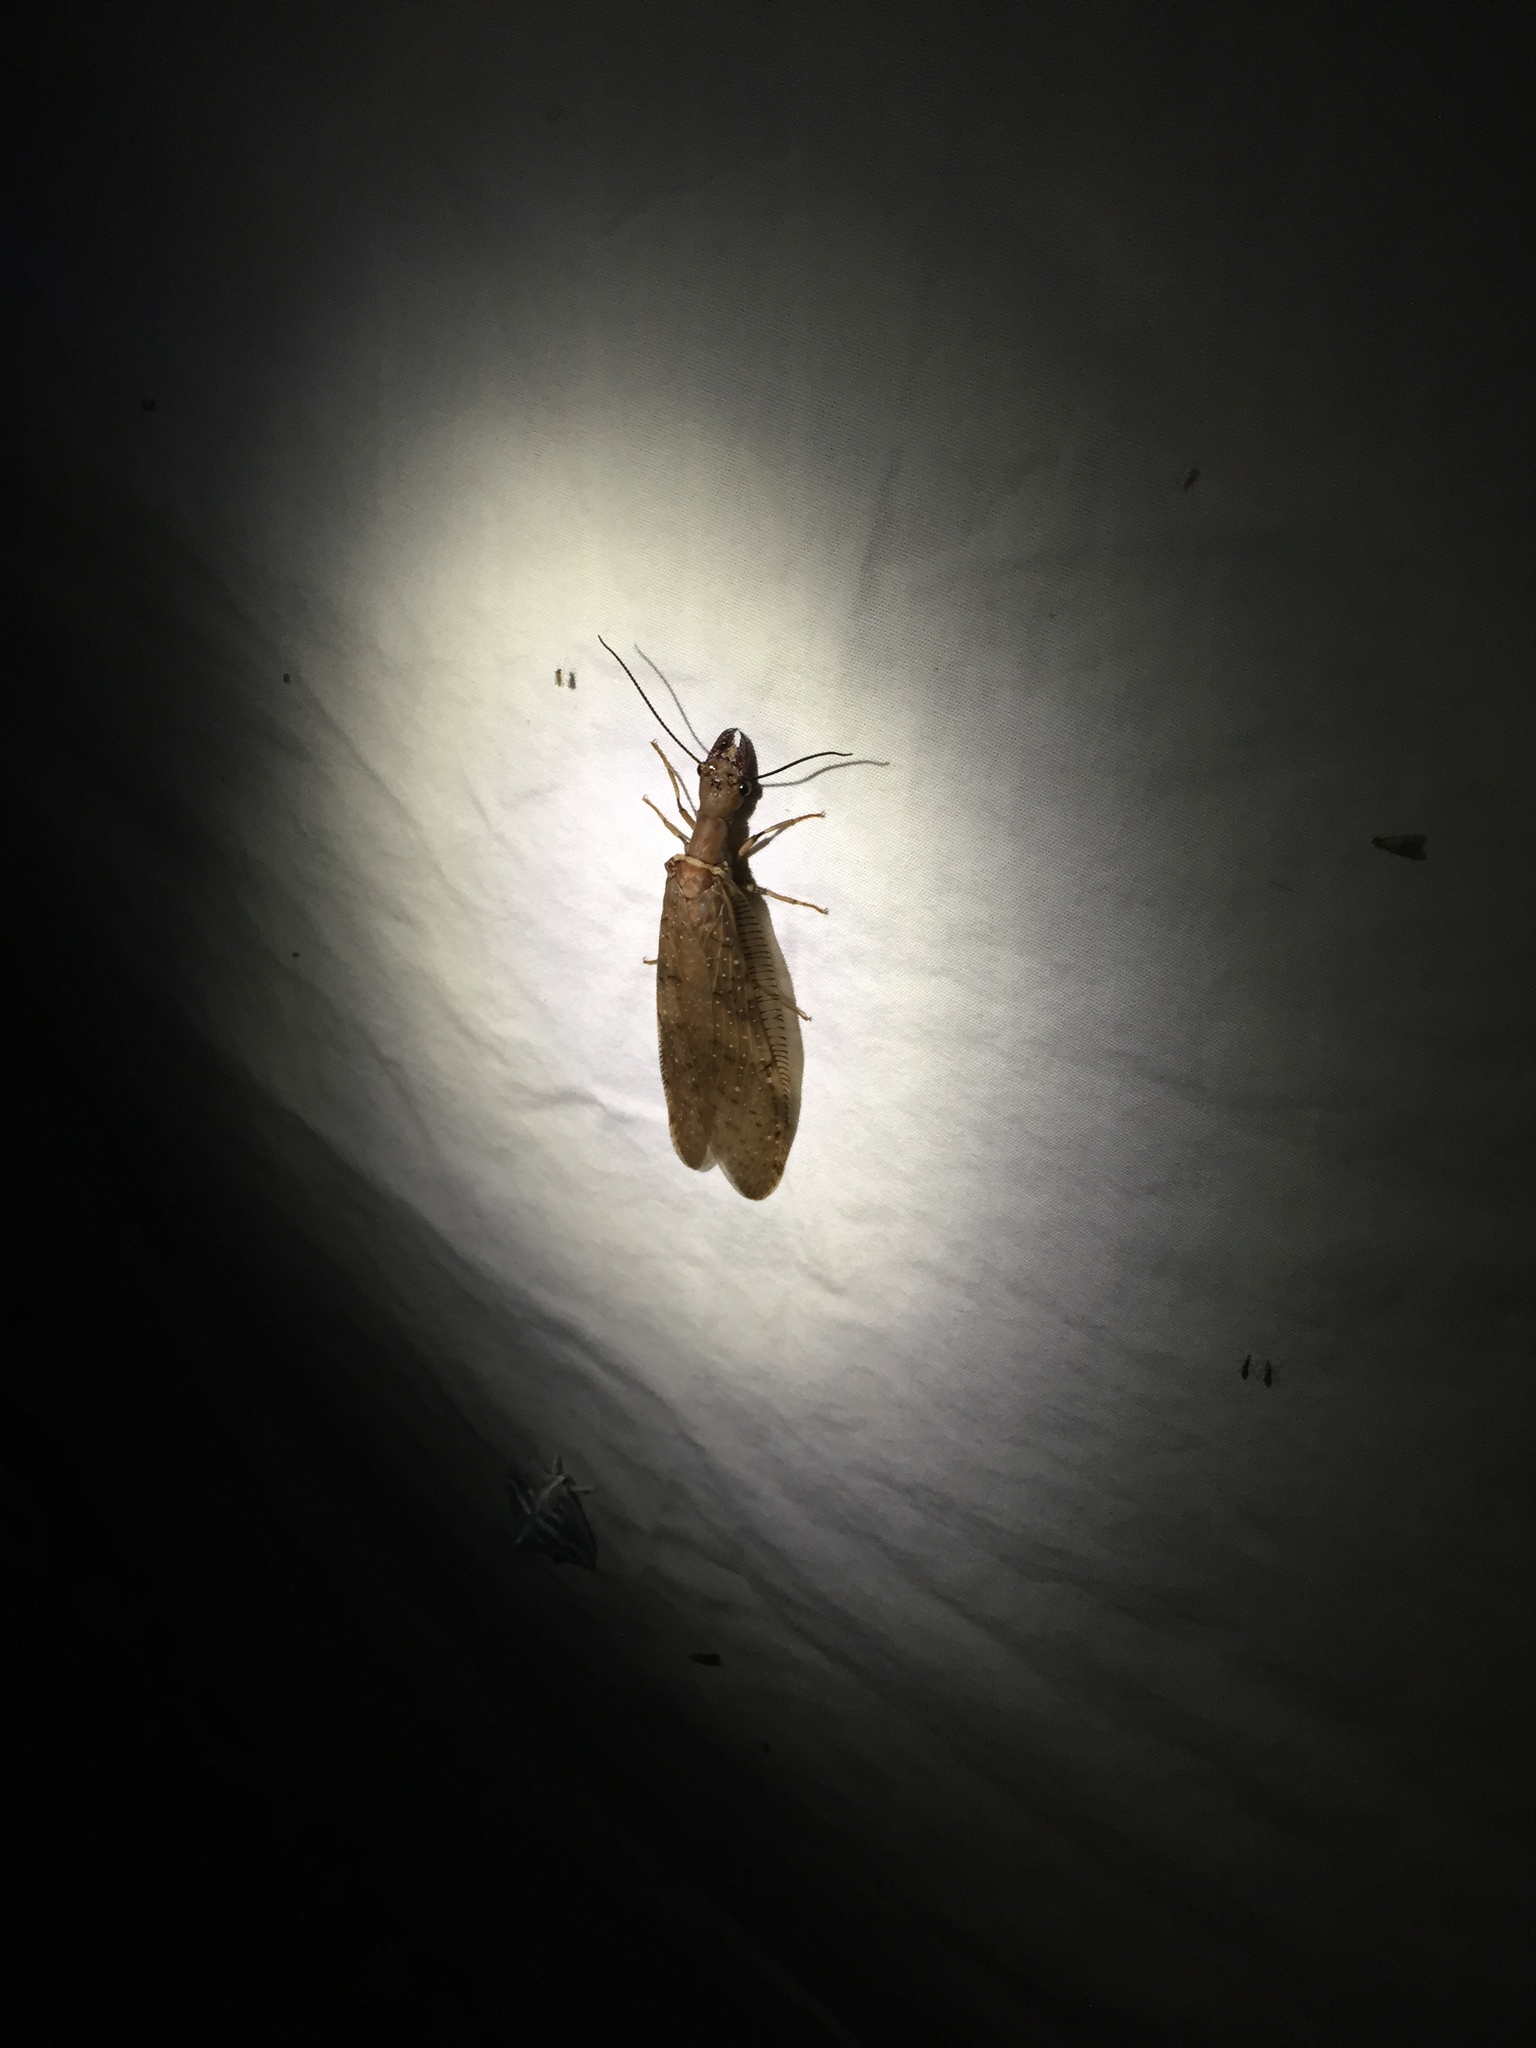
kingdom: Animalia
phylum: Arthropoda
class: Insecta
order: Megaloptera
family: Corydalidae
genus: Corydalus
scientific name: Corydalus peruvianus
